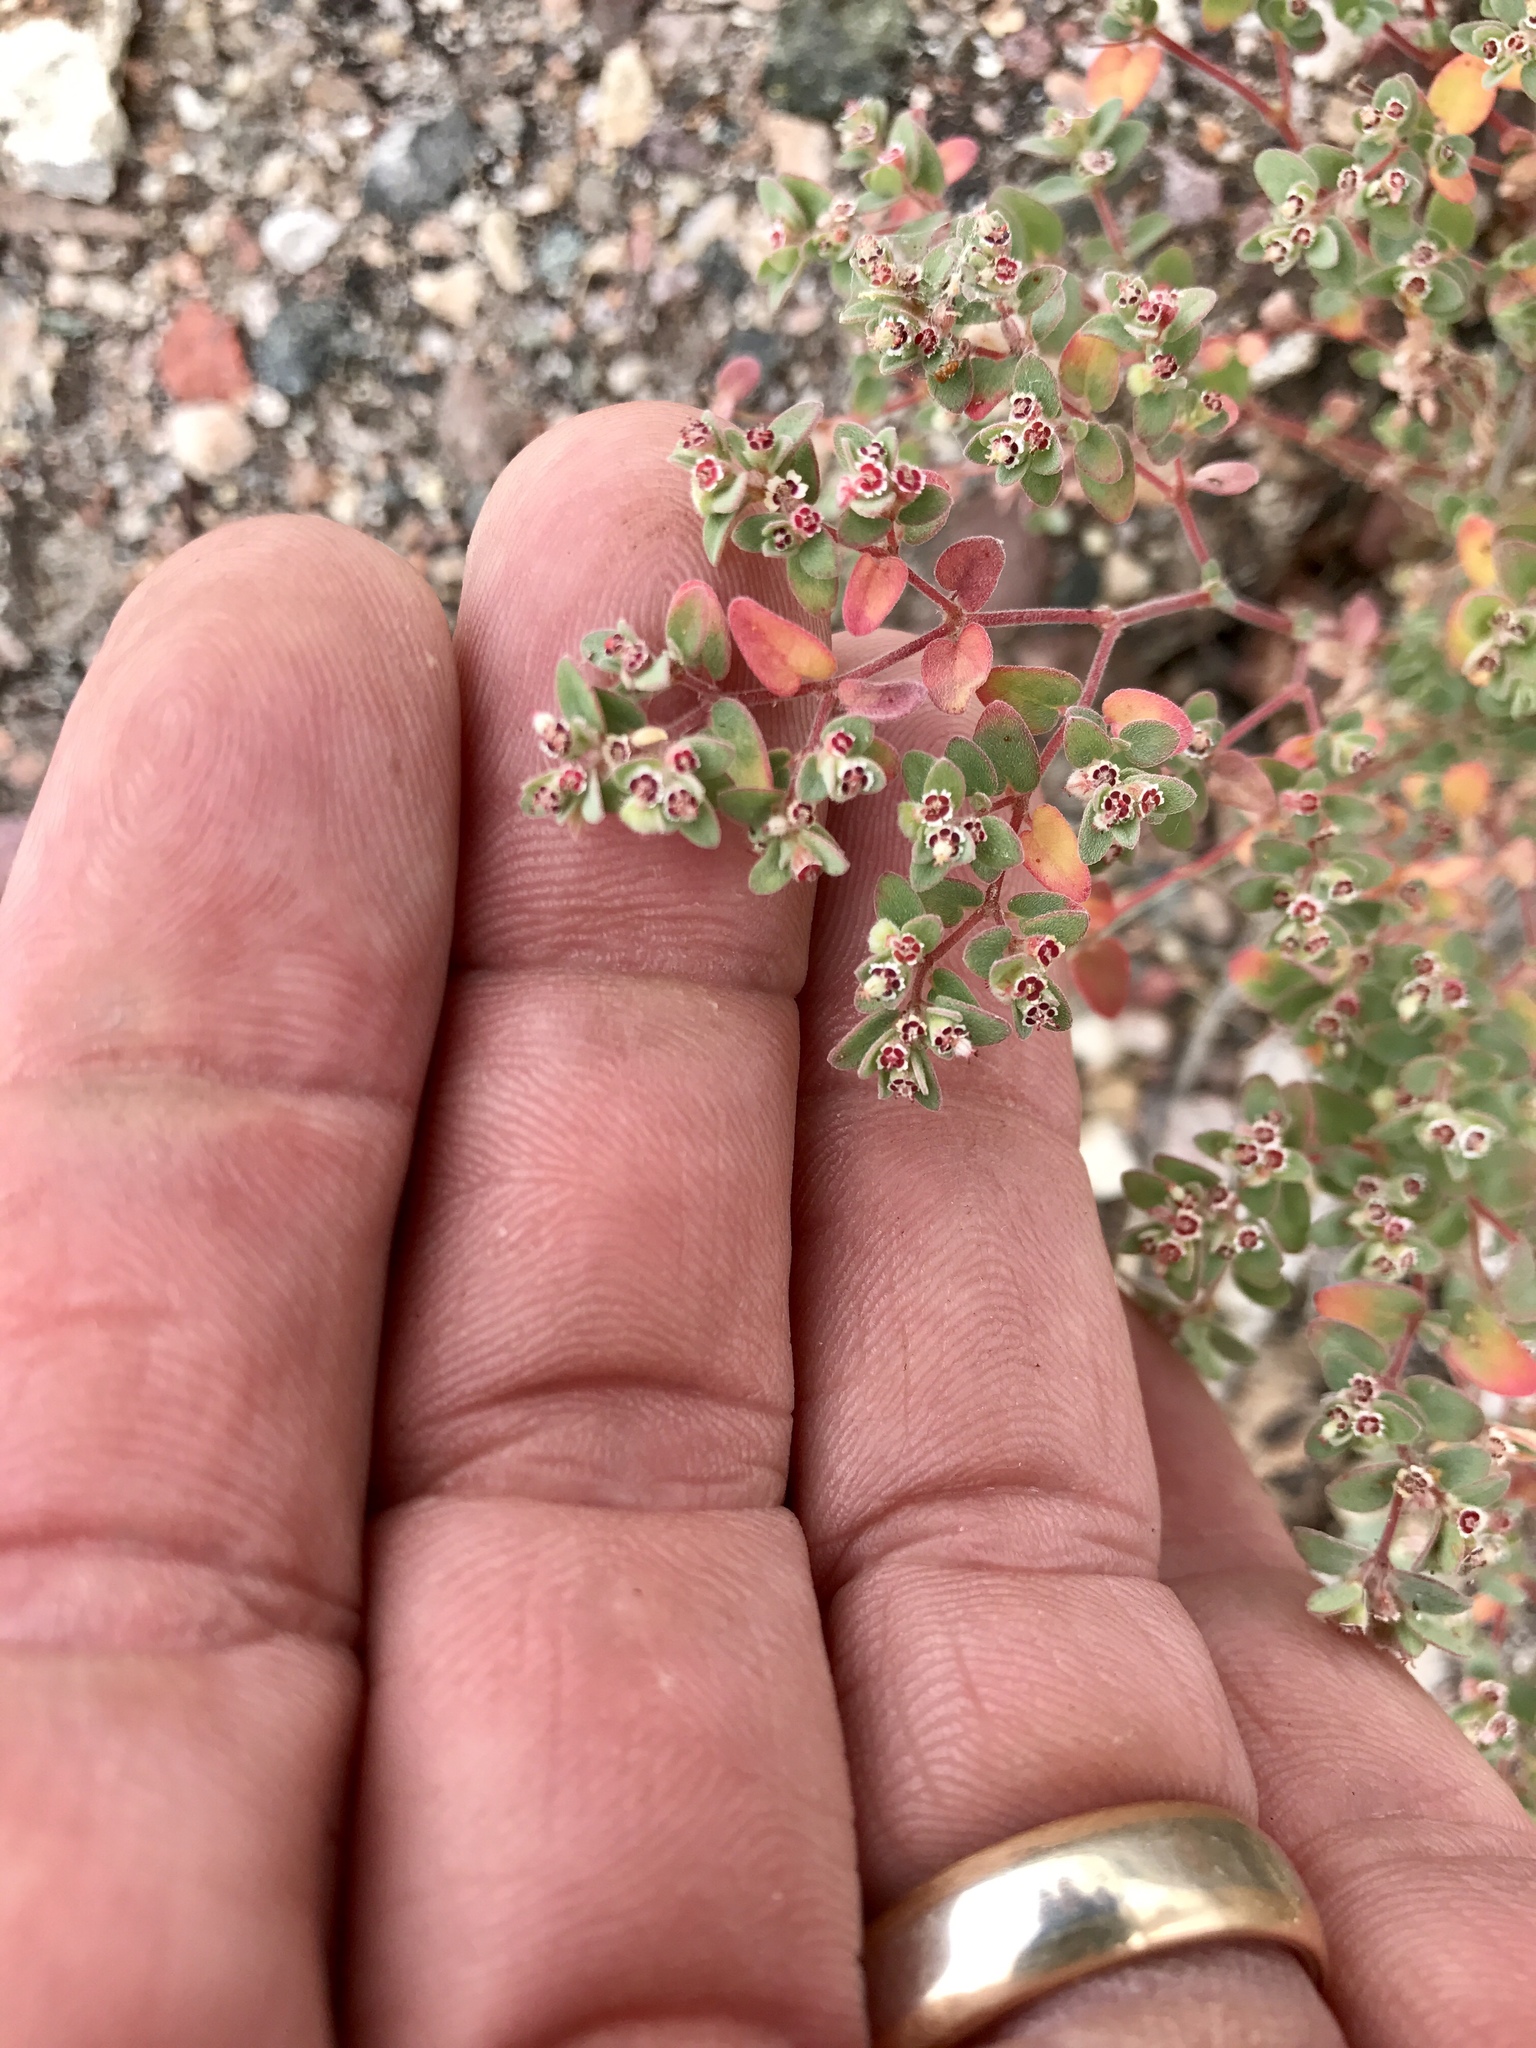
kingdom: Plantae
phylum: Tracheophyta
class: Magnoliopsida
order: Malpighiales
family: Euphorbiaceae
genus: Euphorbia
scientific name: Euphorbia melanadenia
